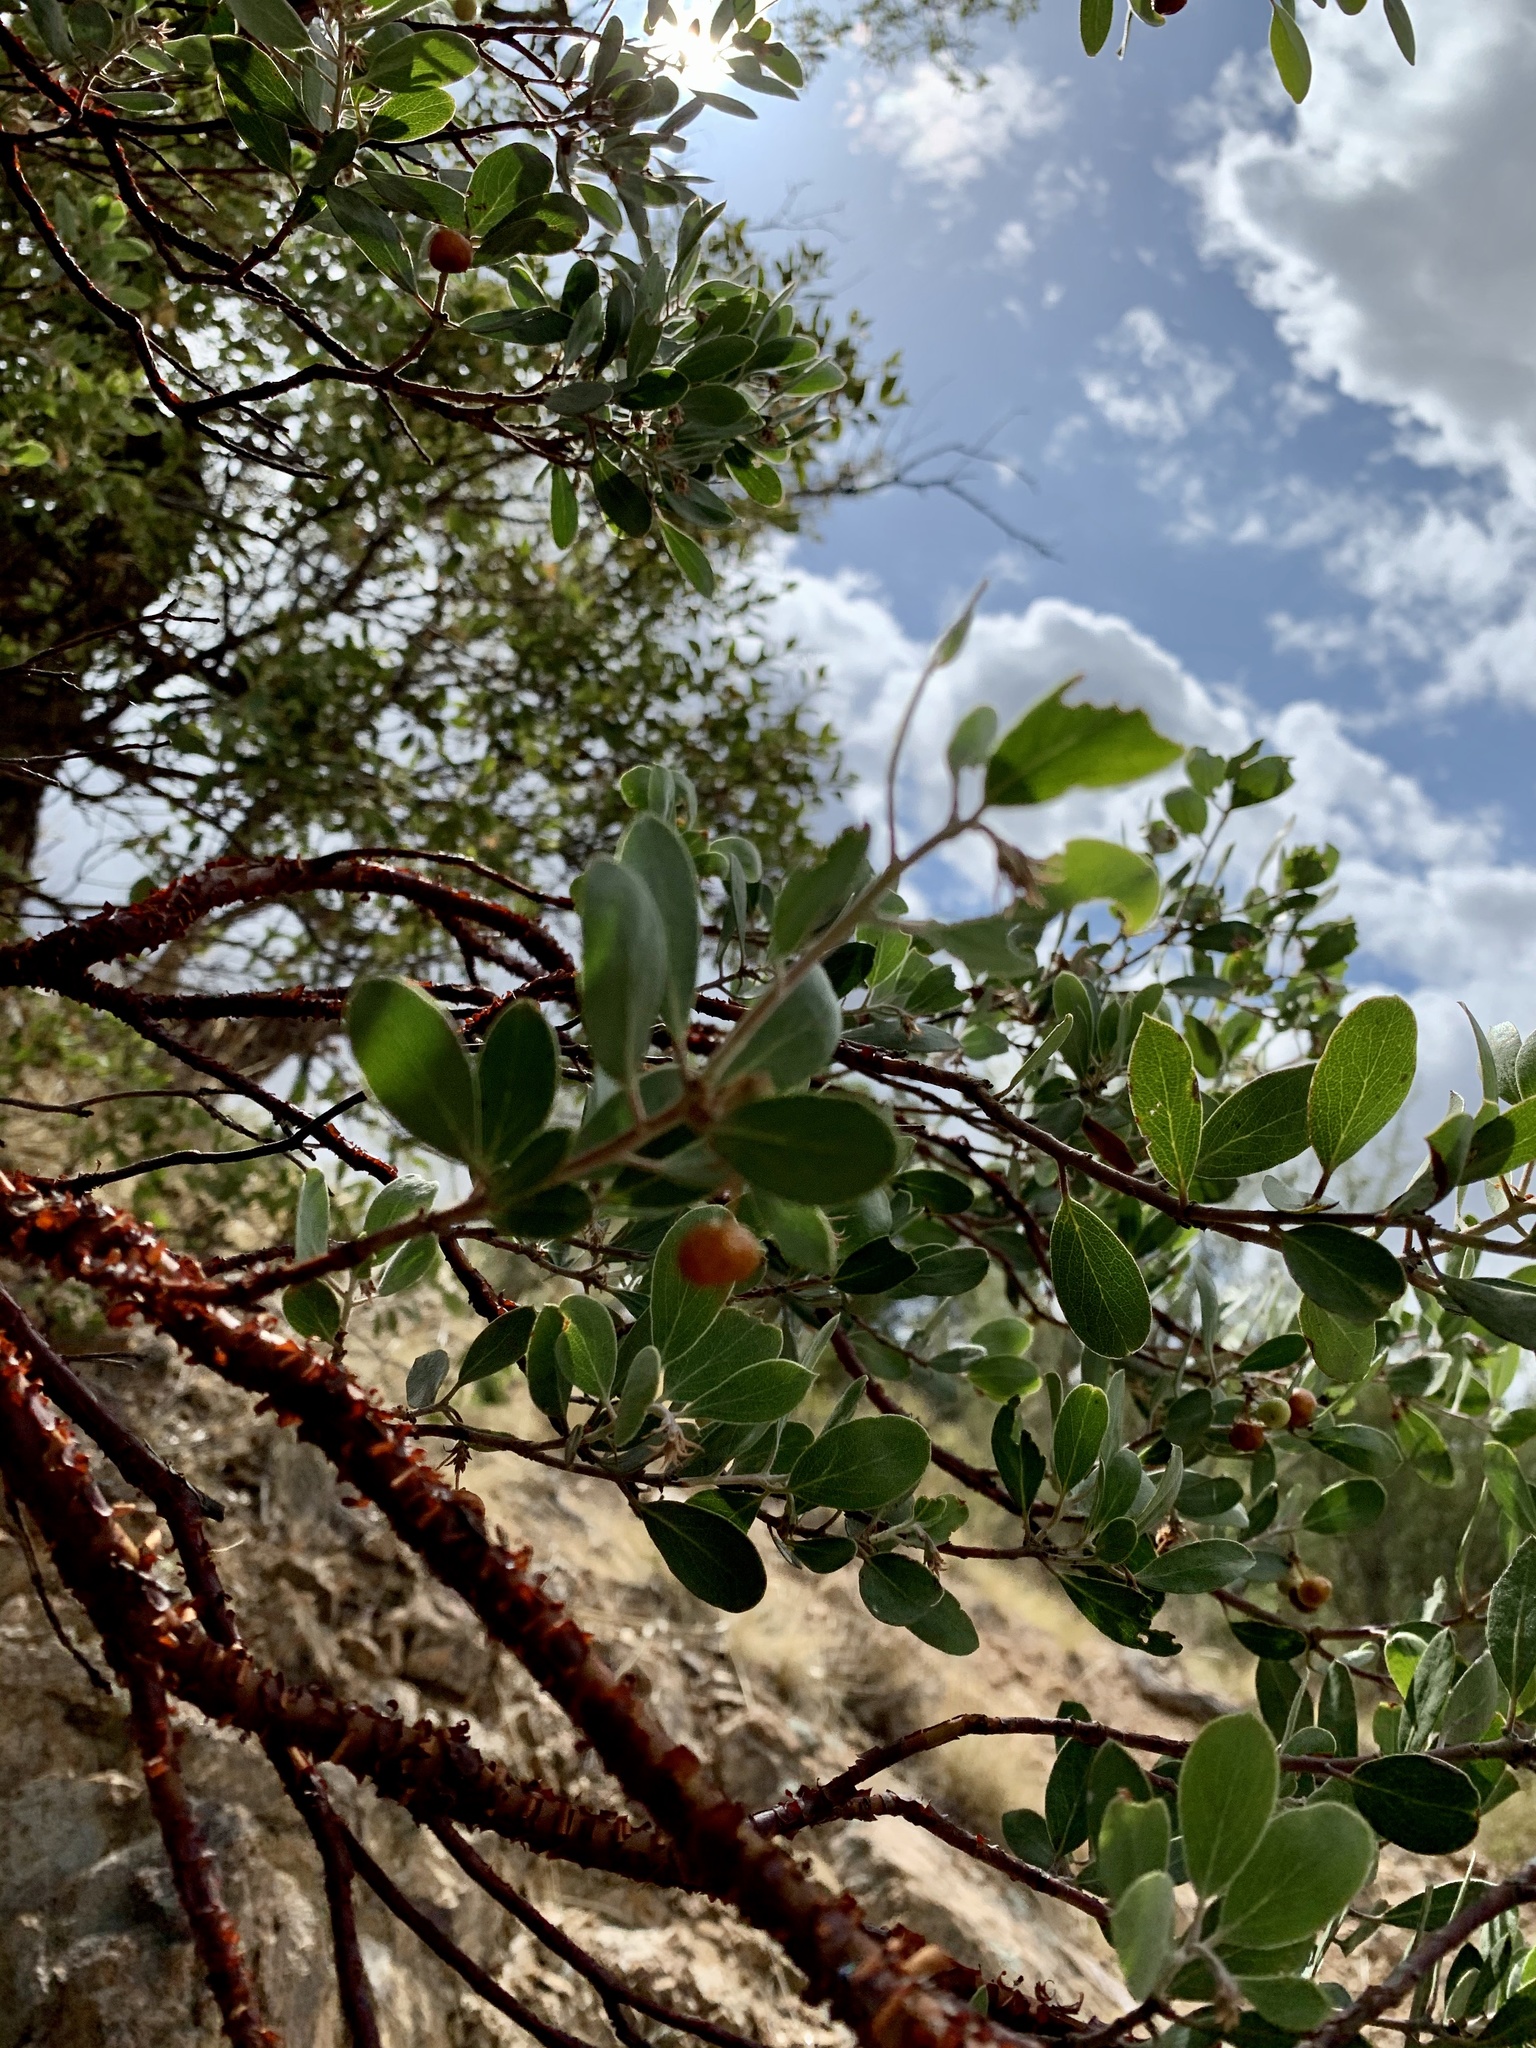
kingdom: Plantae
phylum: Tracheophyta
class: Magnoliopsida
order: Ericales
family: Ericaceae
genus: Arctostaphylos
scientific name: Arctostaphylos pungens
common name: Mexican manzanita
